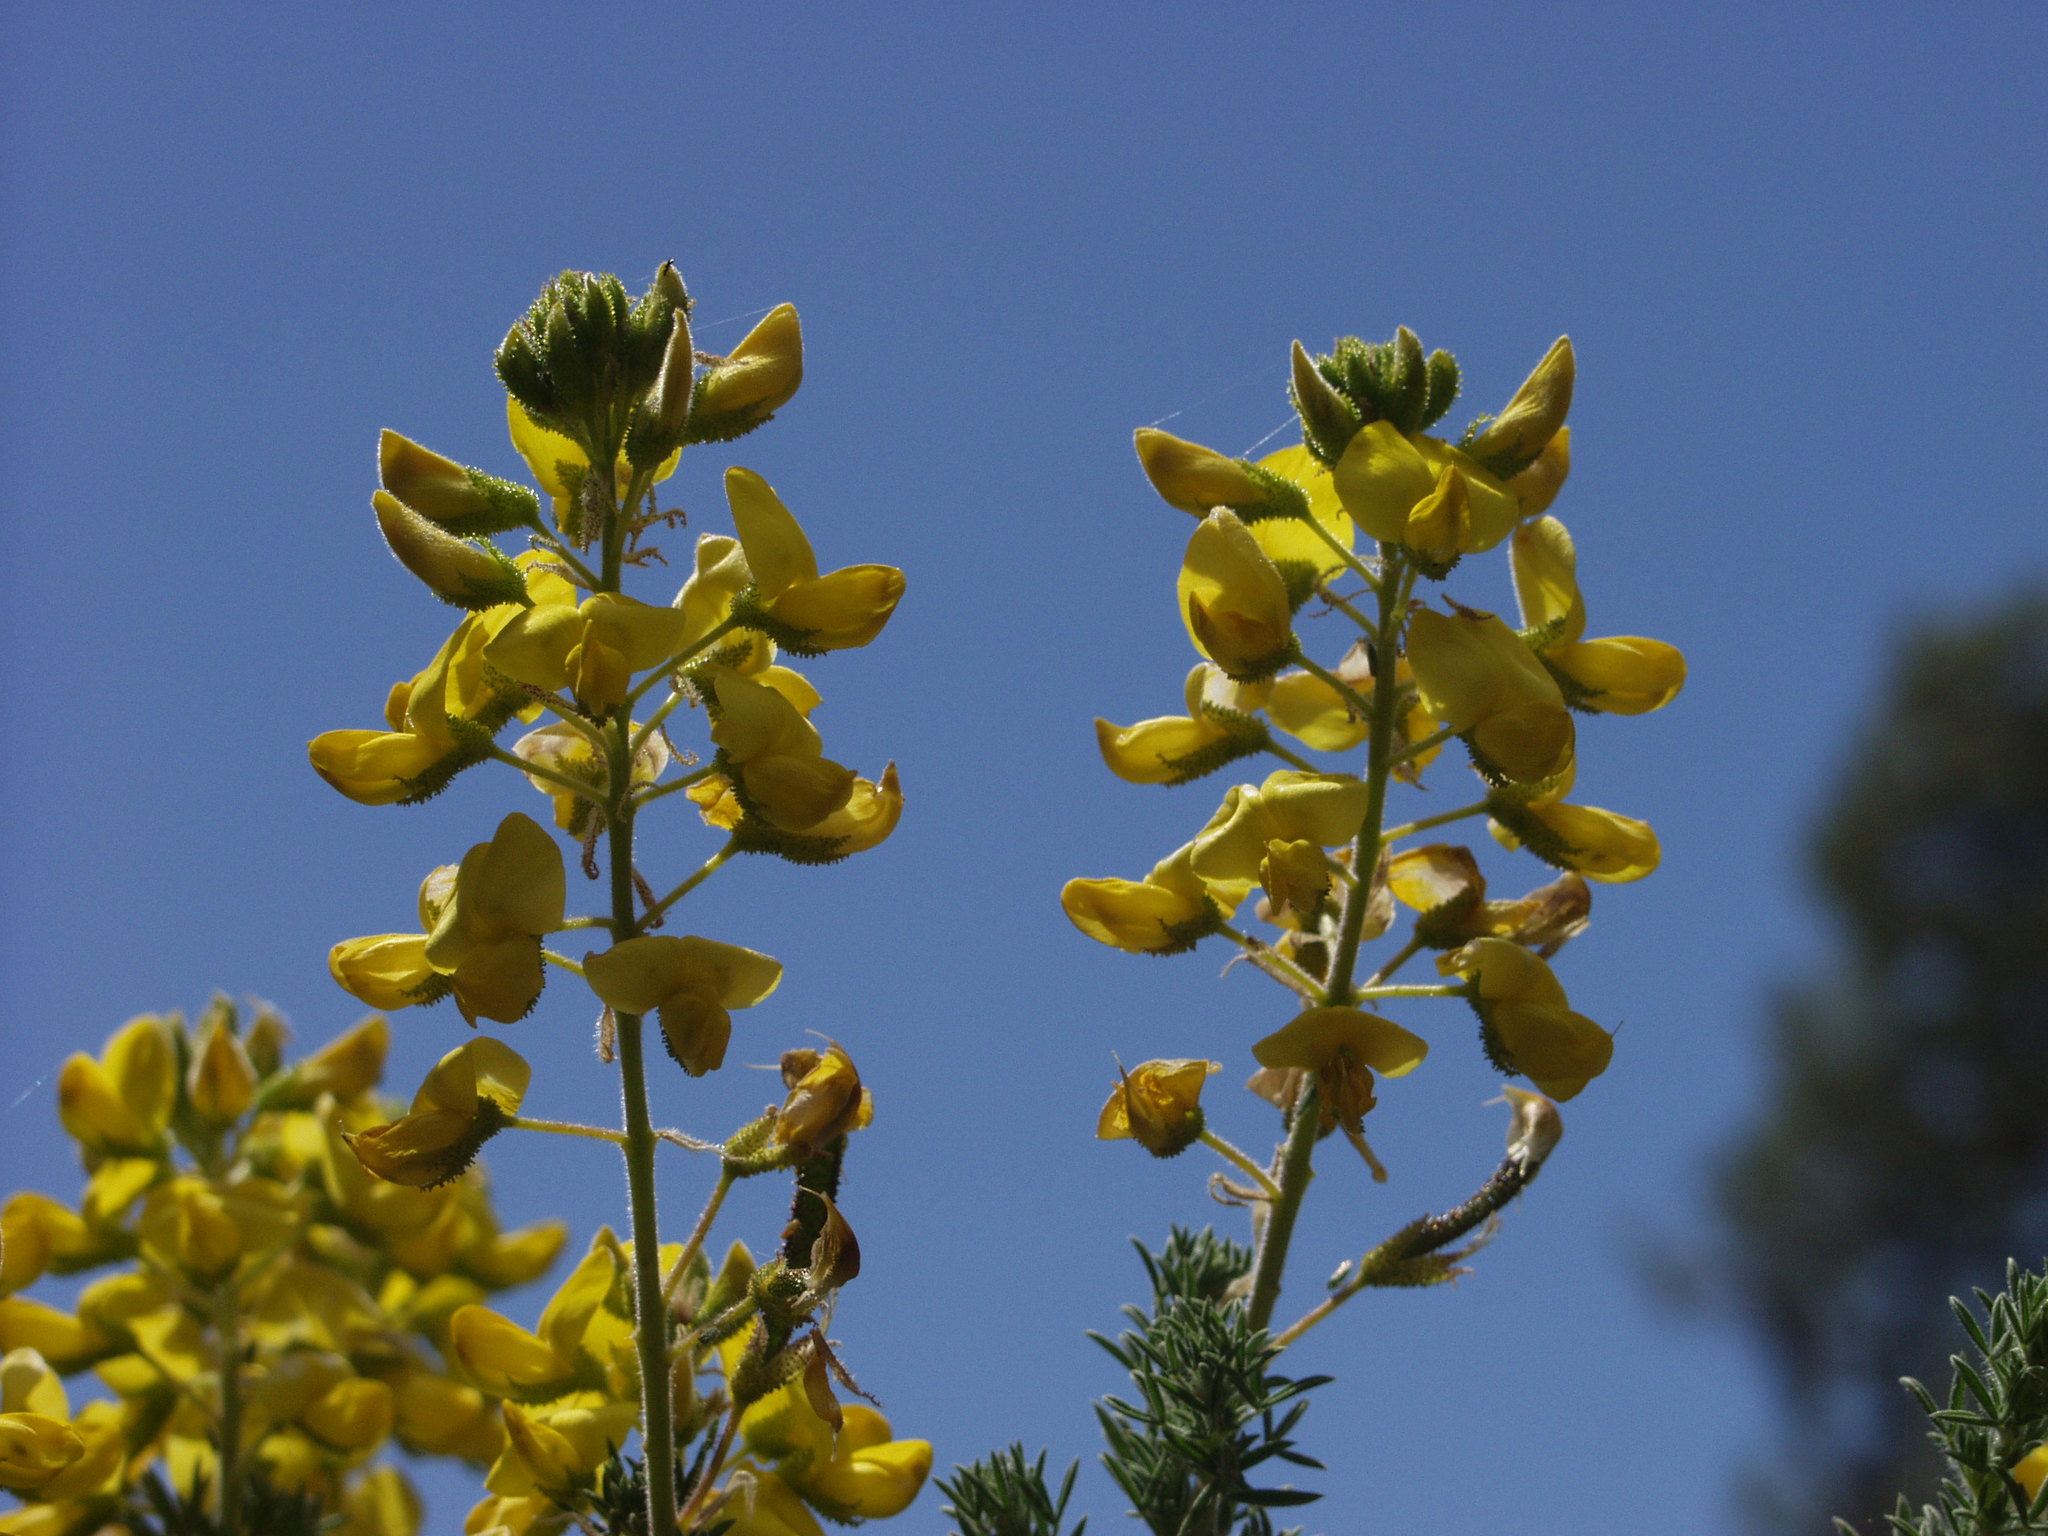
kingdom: Plantae
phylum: Tracheophyta
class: Magnoliopsida
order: Fabales
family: Fabaceae
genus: Adenocarpus
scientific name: Adenocarpus viscosus
